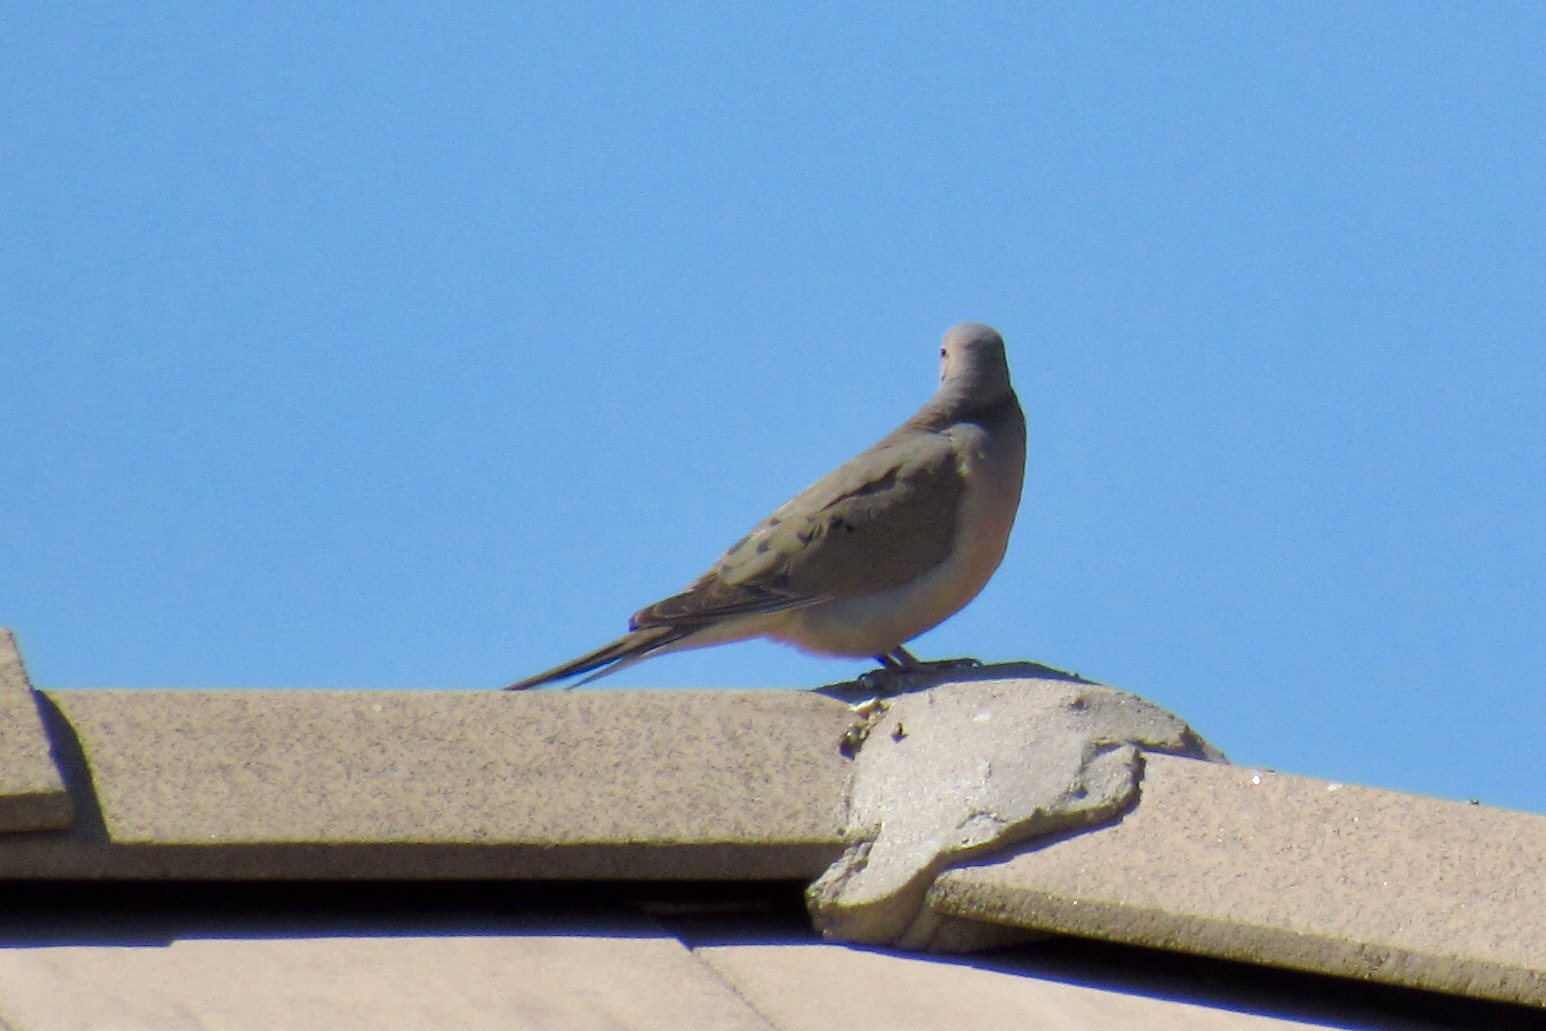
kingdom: Animalia
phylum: Chordata
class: Aves
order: Columbiformes
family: Columbidae
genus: Zenaida
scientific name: Zenaida macroura
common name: Mourning dove
